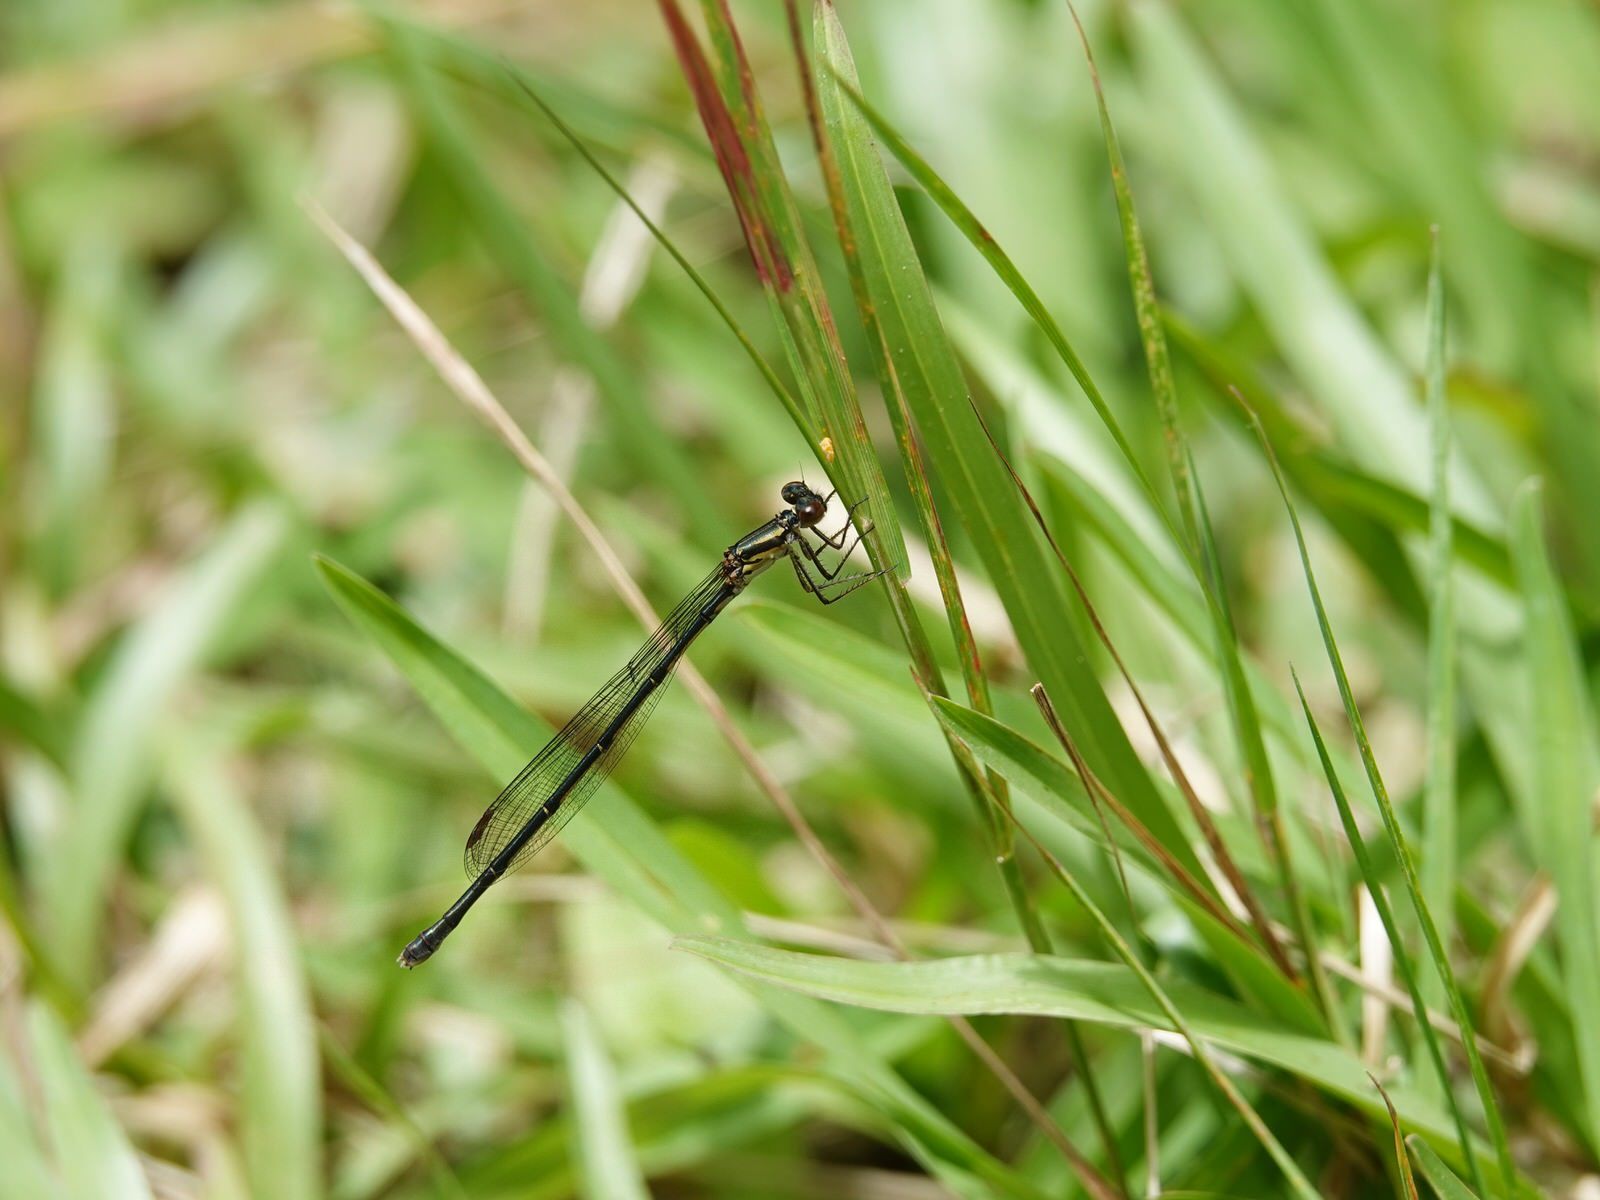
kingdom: Animalia
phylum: Arthropoda
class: Insecta
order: Odonata
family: Coenagrionidae
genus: Xanthocnemis
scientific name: Xanthocnemis zealandica
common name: Common redcoat damselfly
